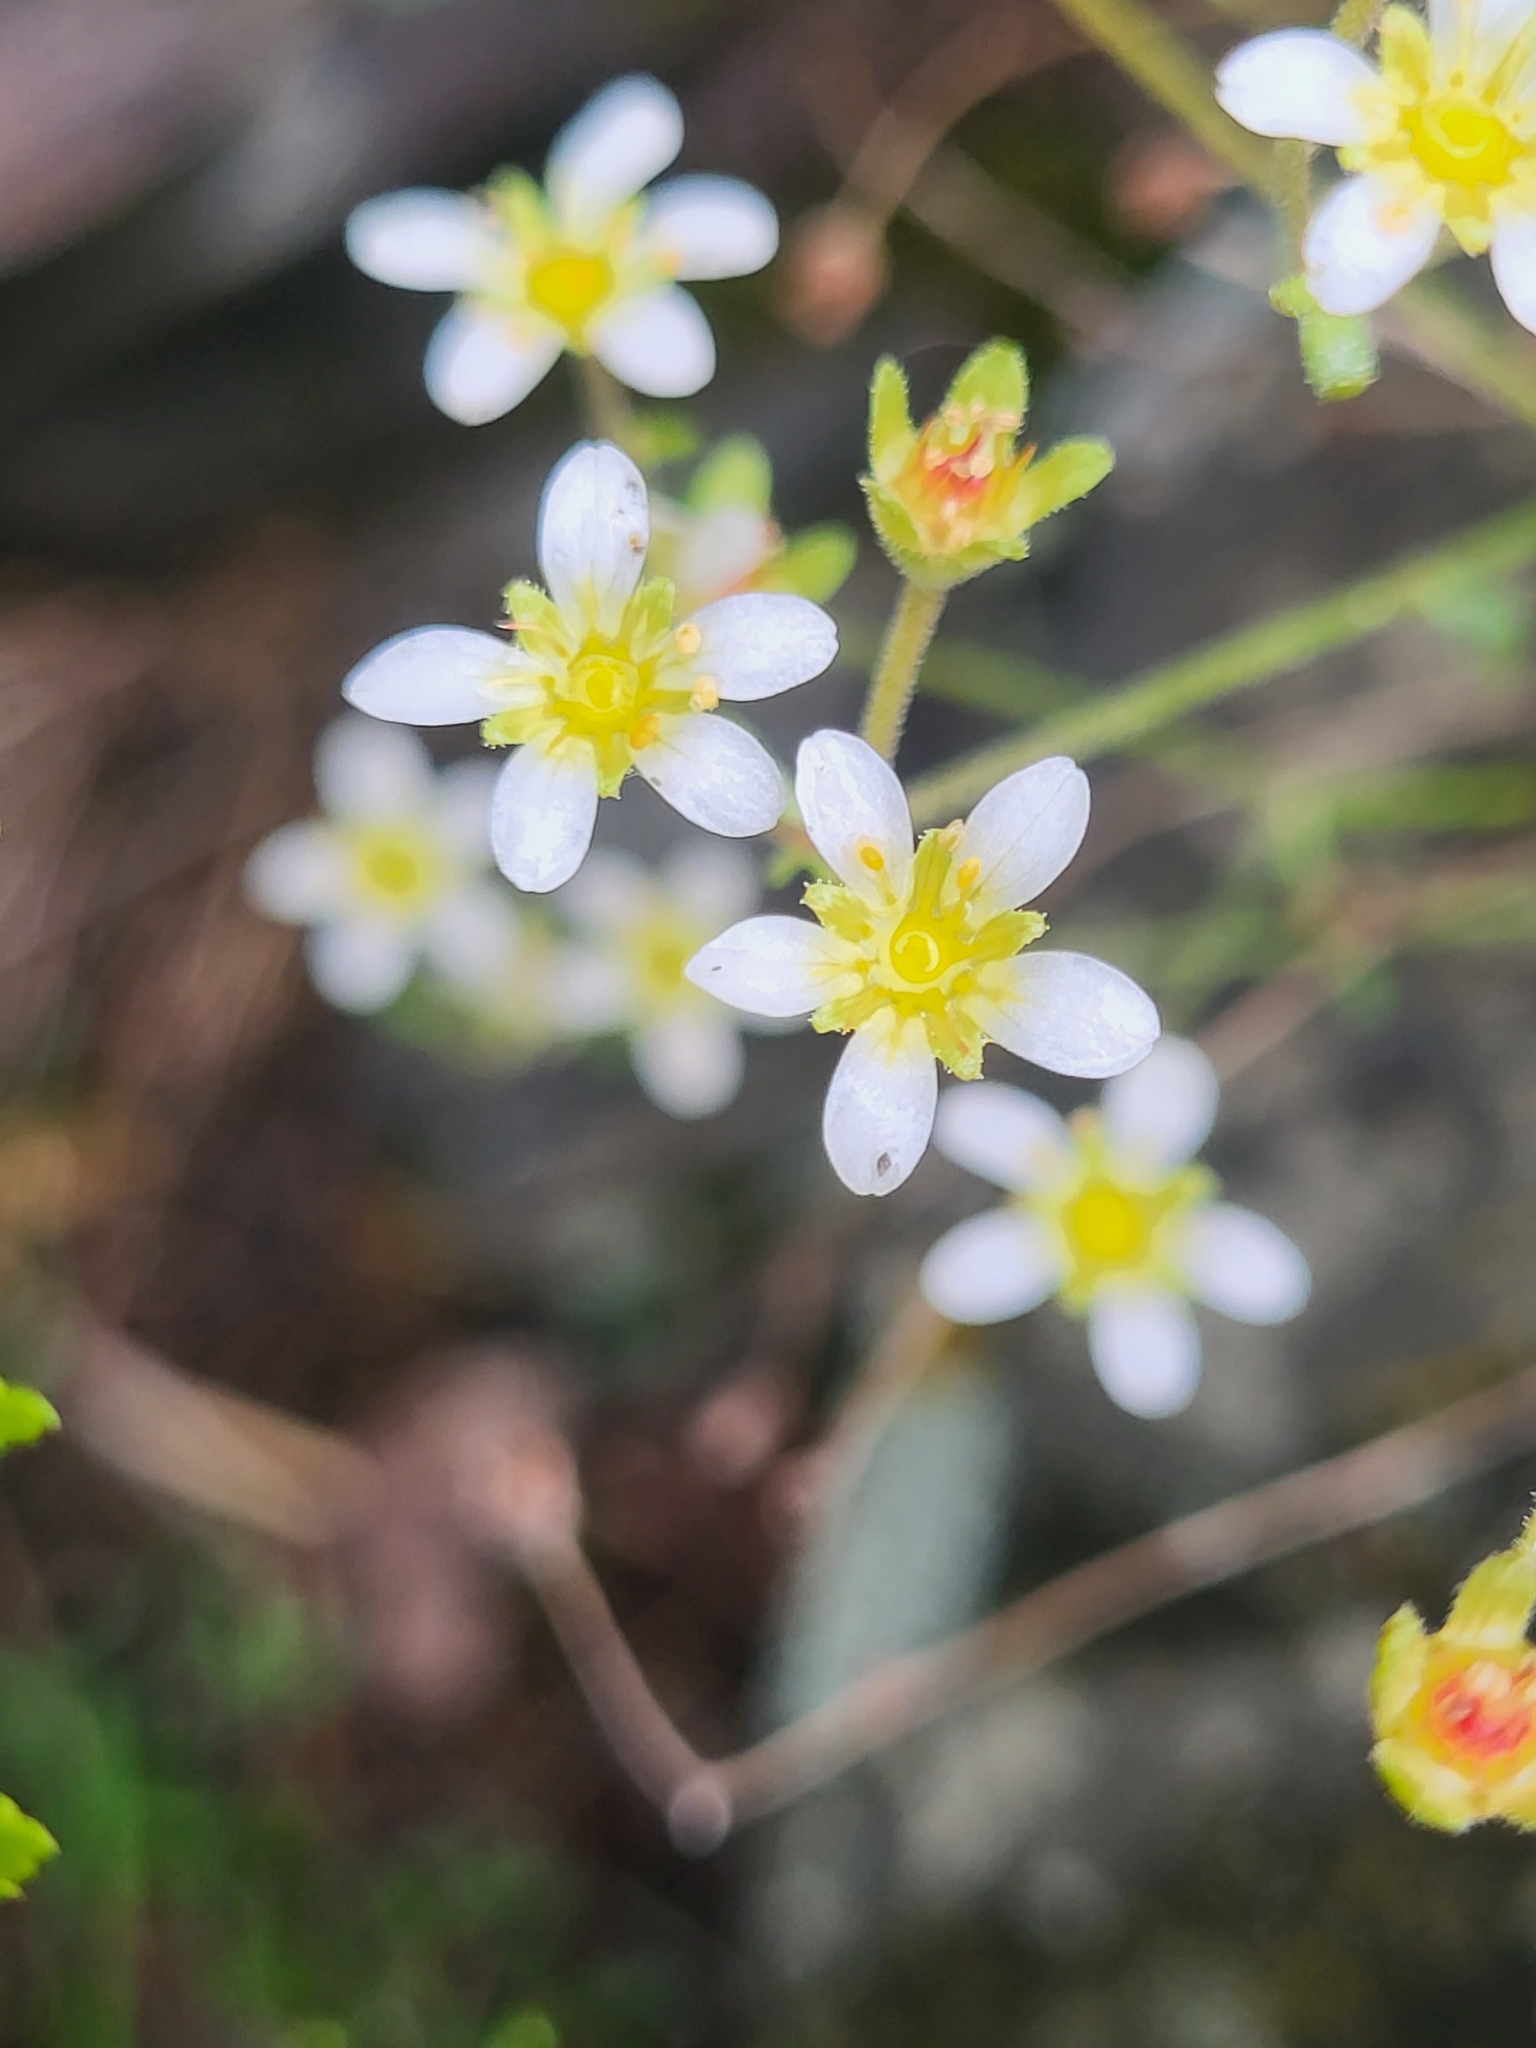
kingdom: Plantae
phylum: Tracheophyta
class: Magnoliopsida
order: Saxifragales
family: Saxifragaceae
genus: Saxifraga
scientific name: Saxifraga paniculata
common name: Livelong saxifrage
